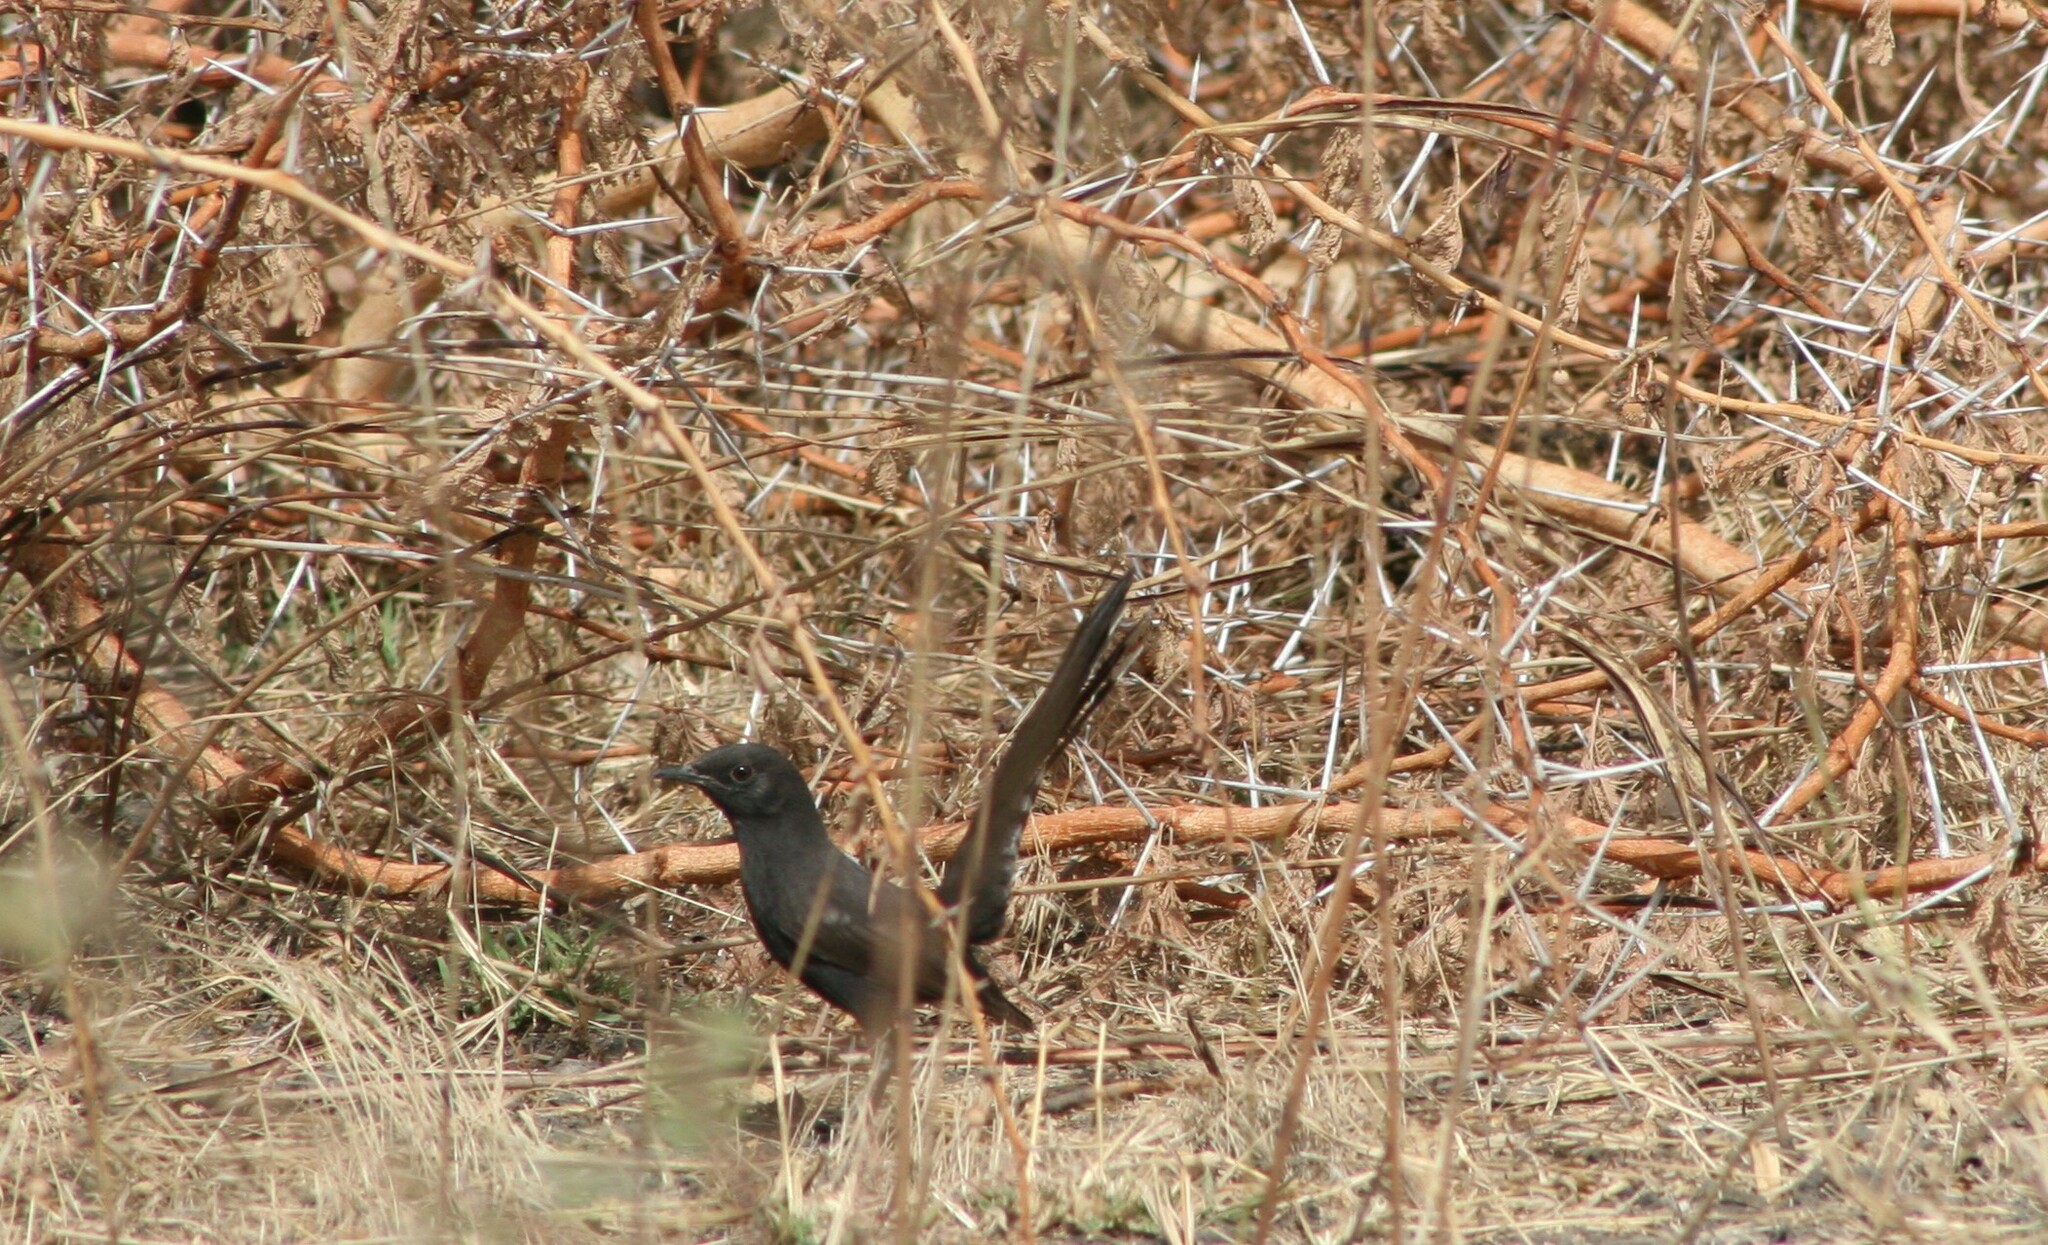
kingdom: Animalia
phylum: Chordata
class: Aves
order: Passeriformes
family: Muscicapidae
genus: Cercotrichas
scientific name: Cercotrichas podobe
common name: Black scrub robin
